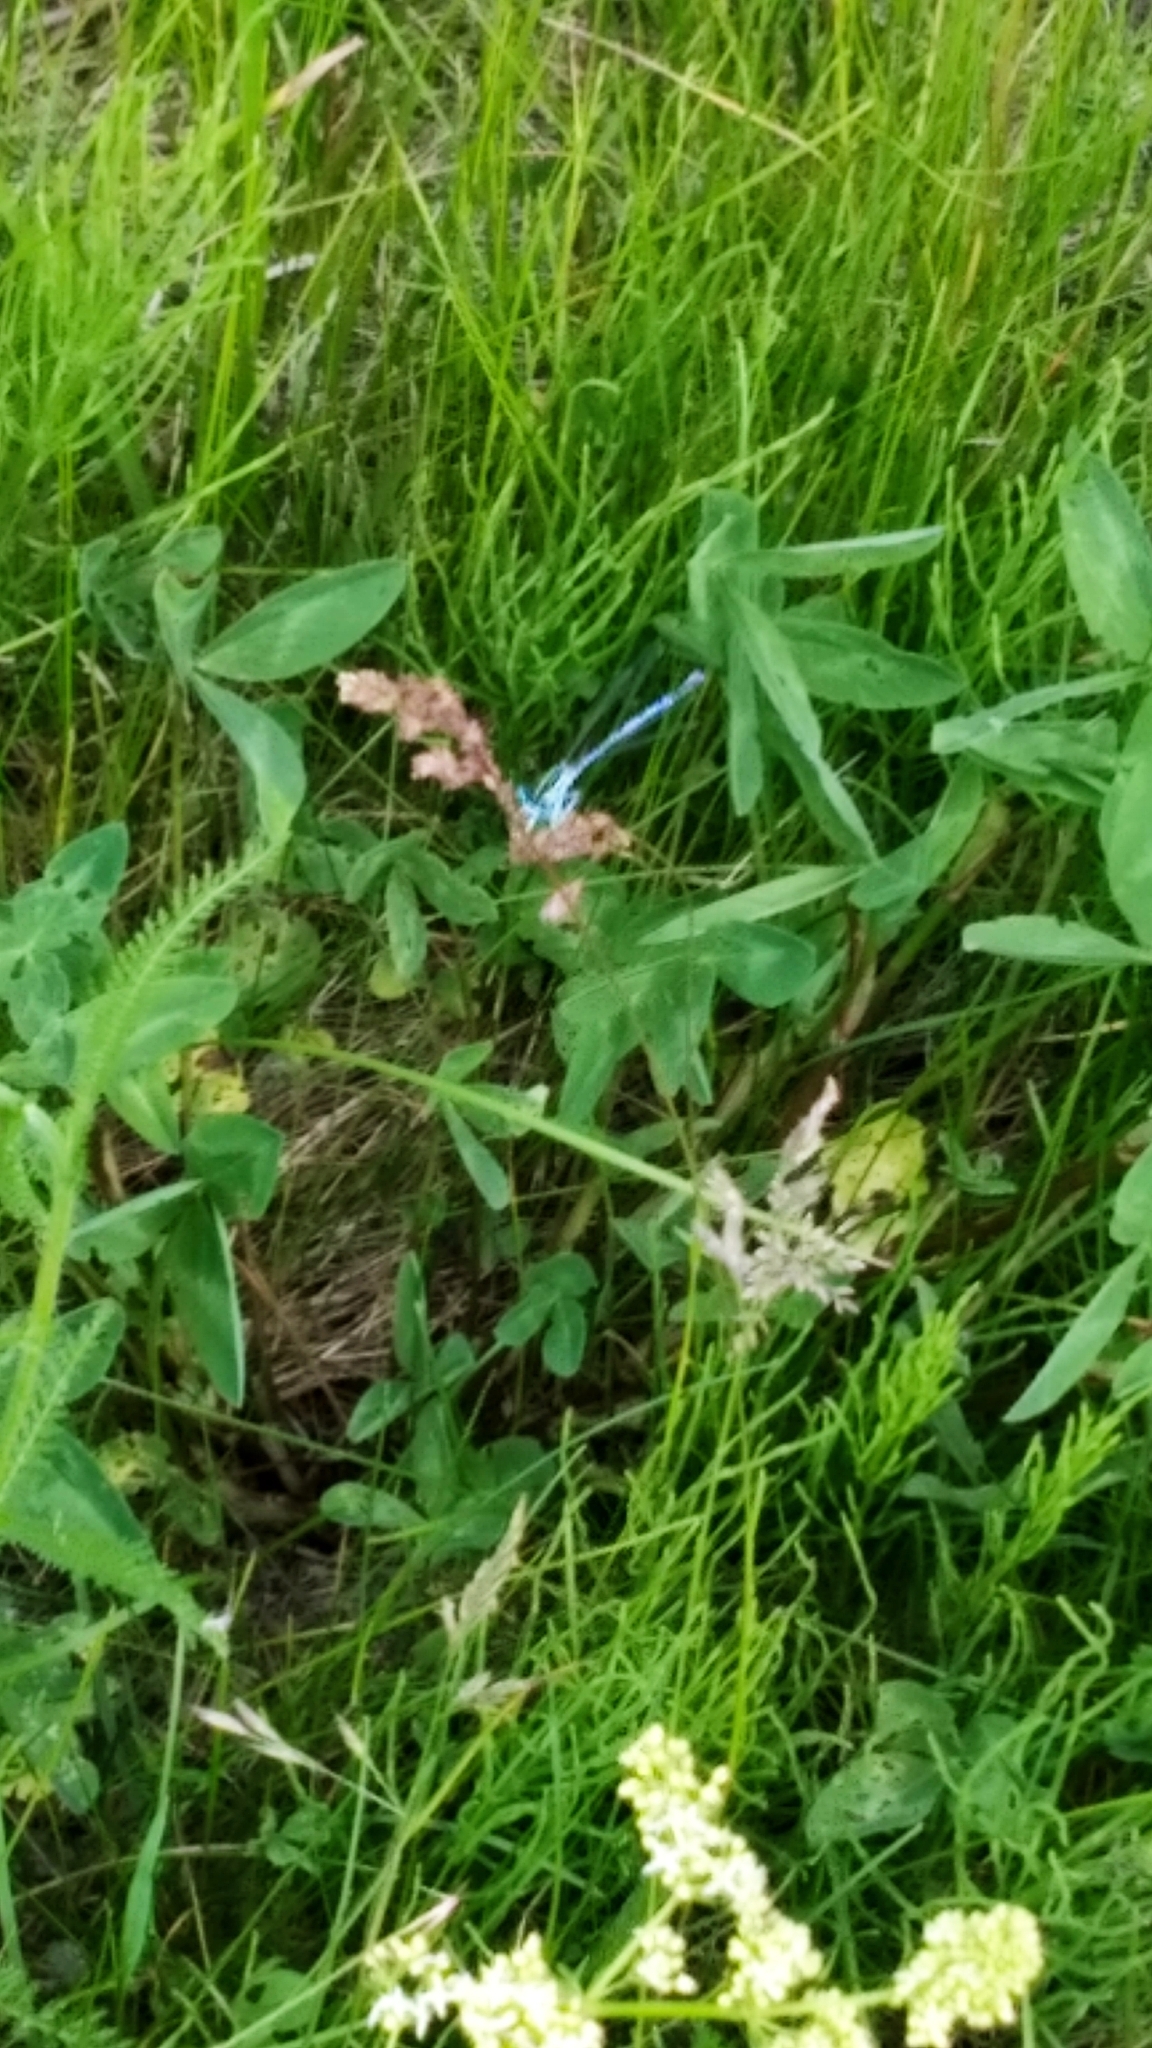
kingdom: Animalia
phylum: Arthropoda
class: Insecta
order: Odonata
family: Platycnemididae
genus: Platycnemis
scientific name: Platycnemis pennipes
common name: White-legged damselfly
